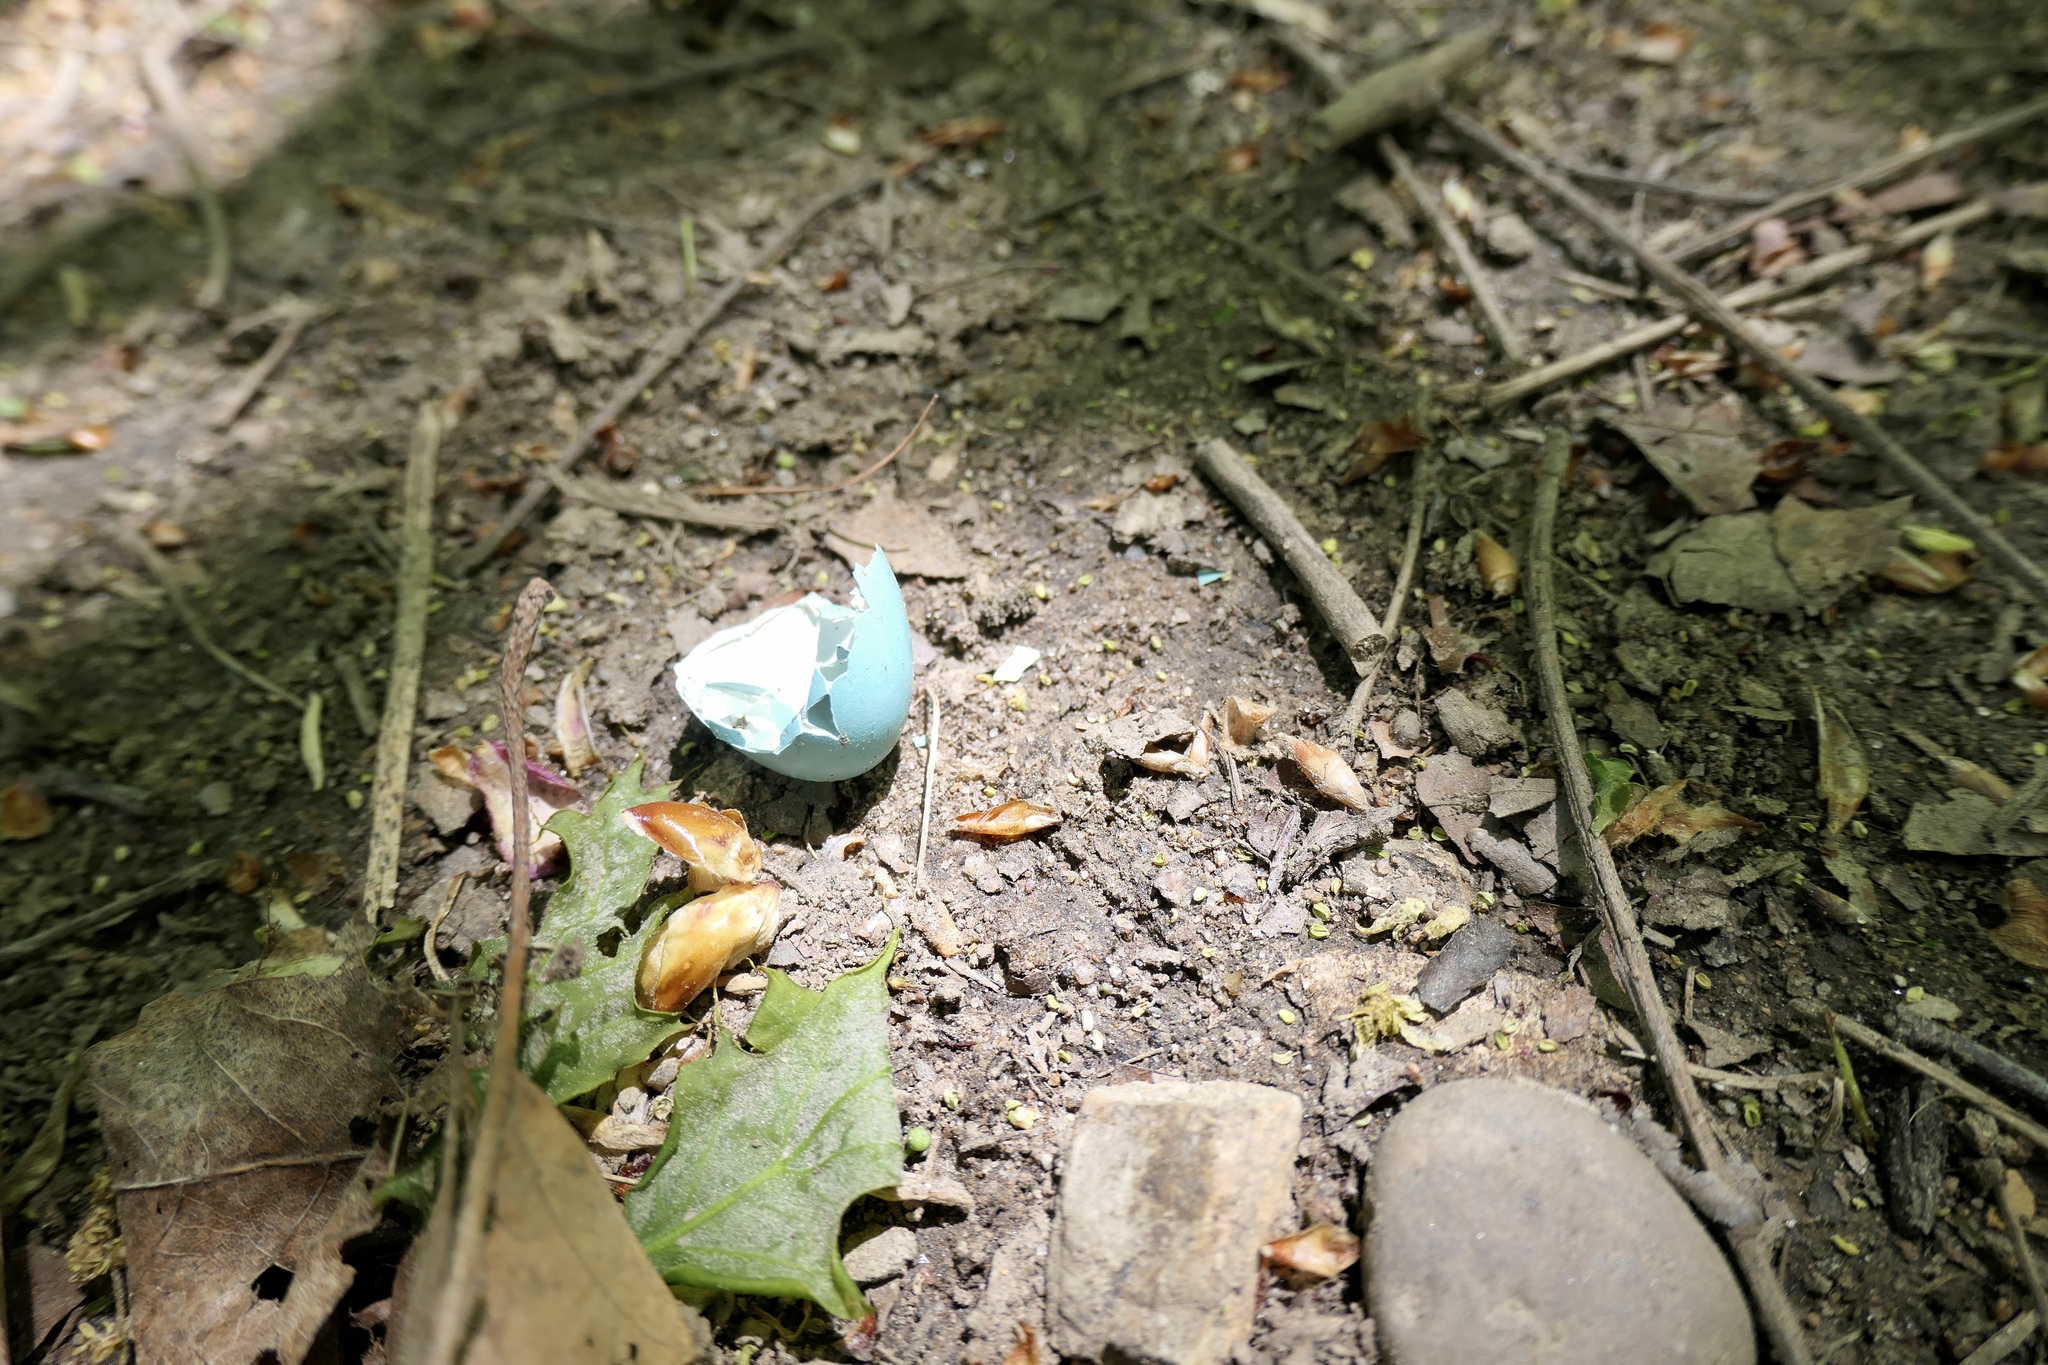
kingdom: Animalia
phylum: Chordata
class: Aves
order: Passeriformes
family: Turdidae
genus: Turdus
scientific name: Turdus migratorius
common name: American robin
